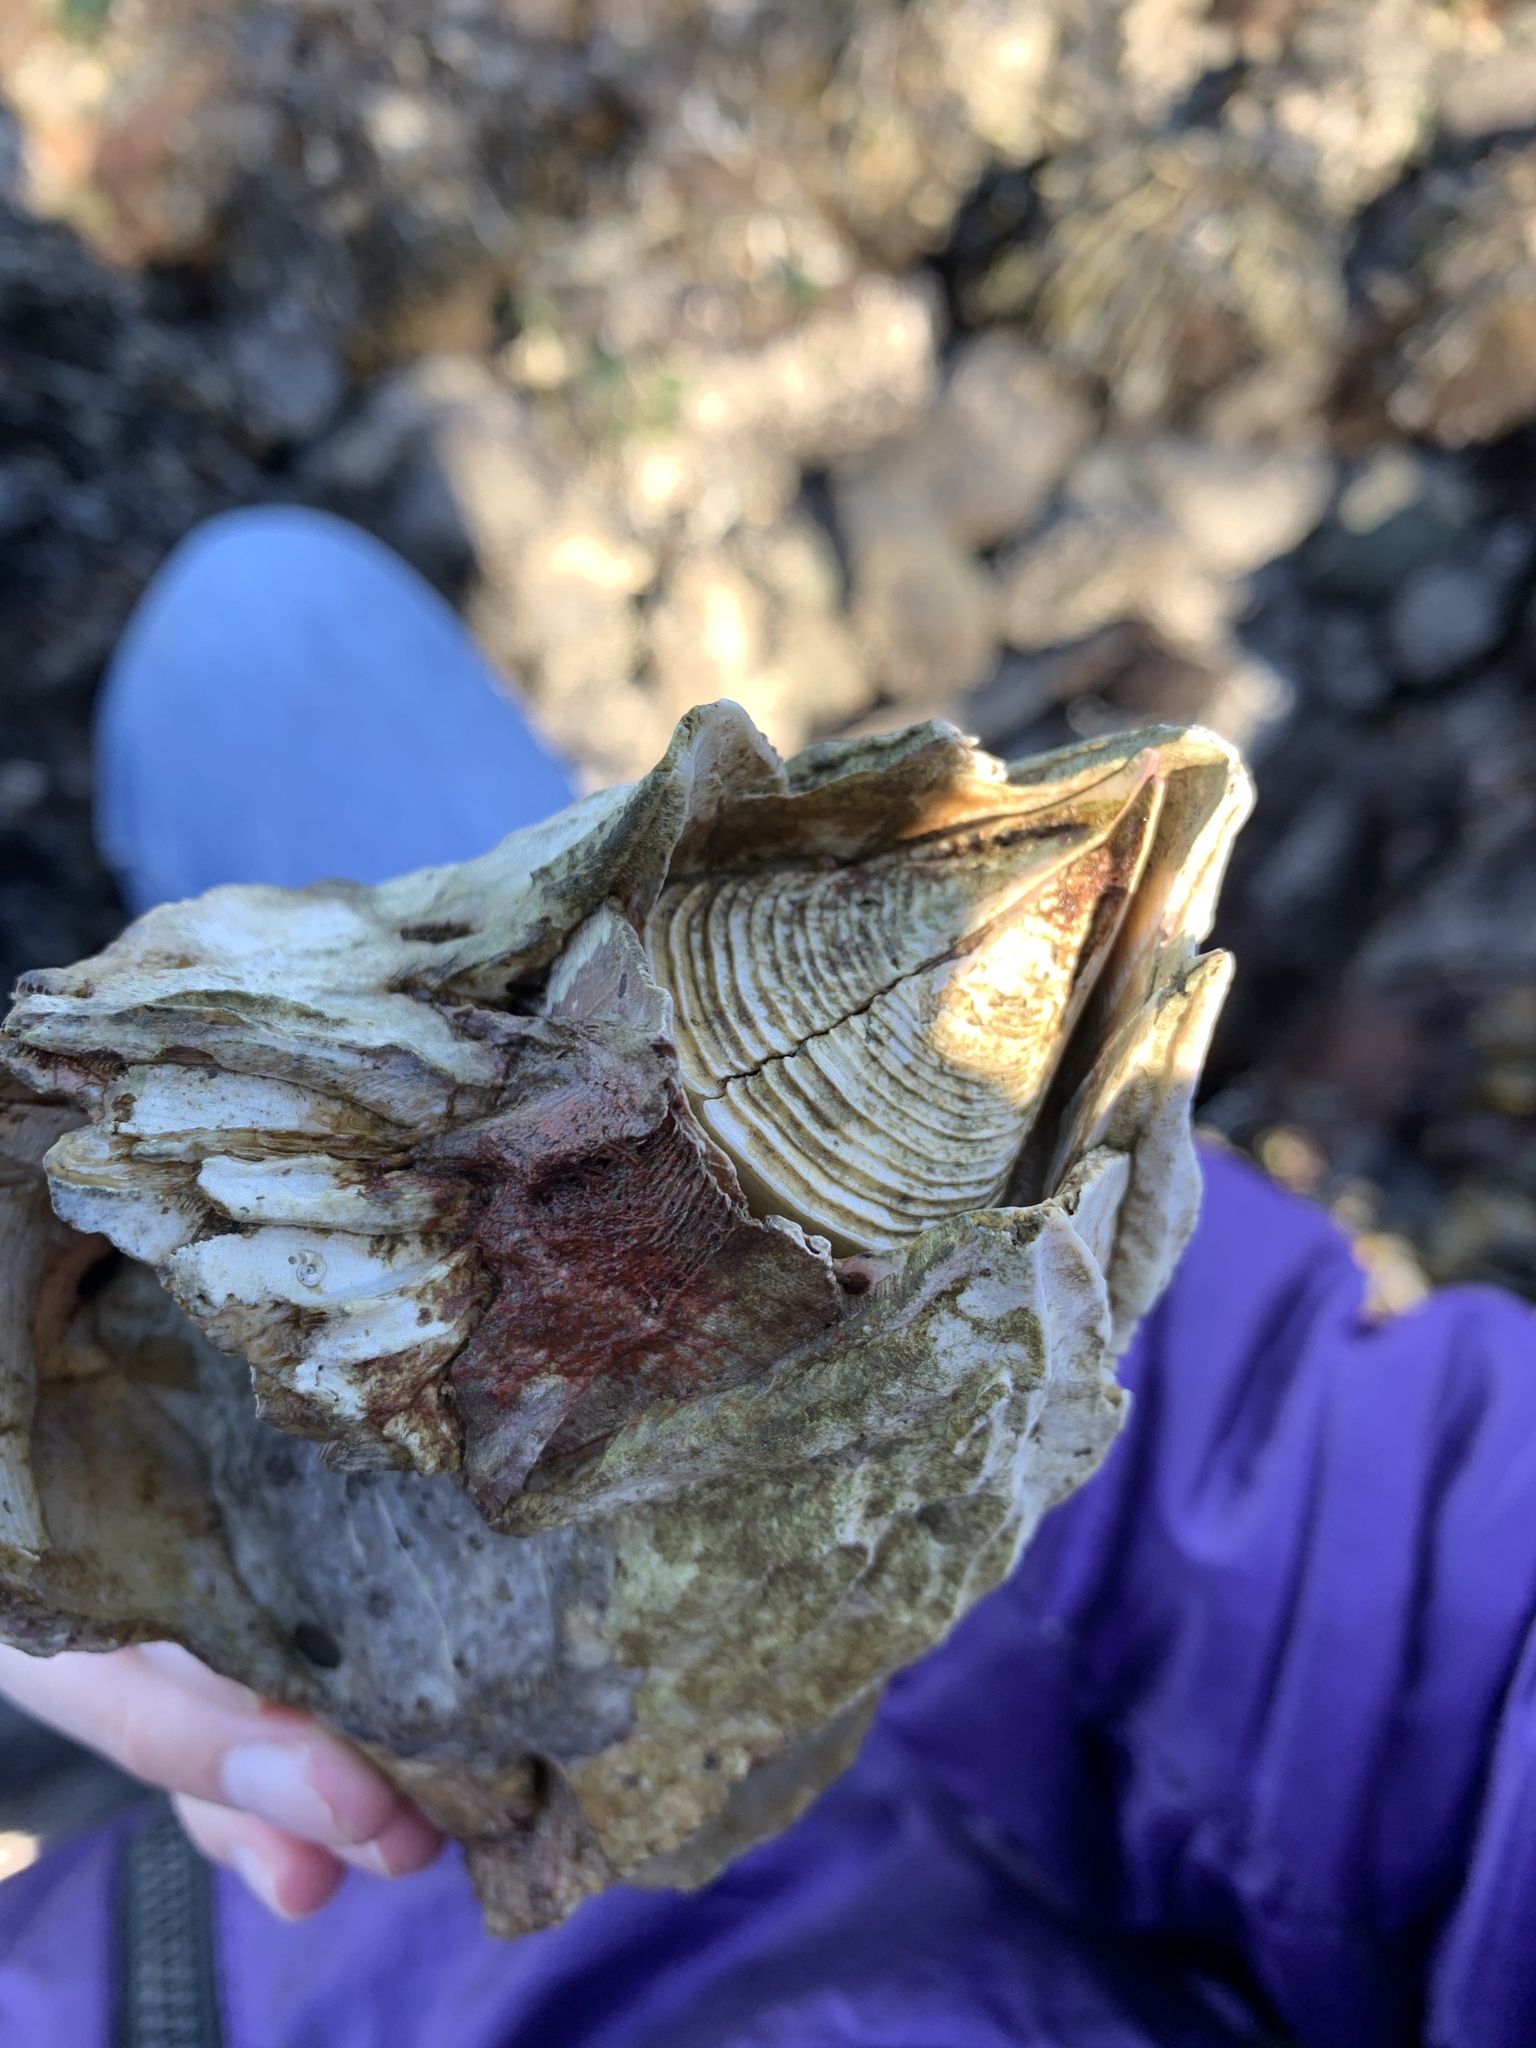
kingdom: Animalia
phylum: Arthropoda
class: Maxillopoda
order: Sessilia
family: Balanidae
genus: Balanus
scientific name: Balanus nubilus
